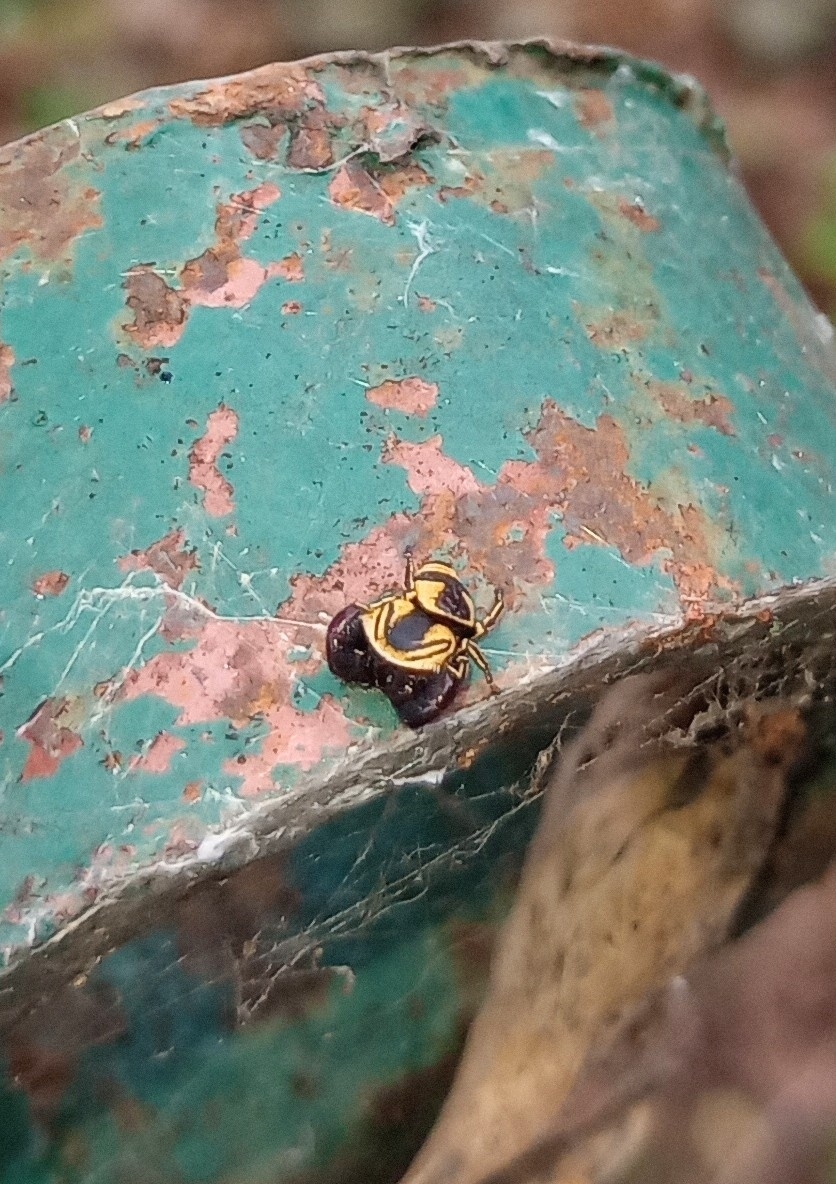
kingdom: Animalia
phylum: Arthropoda
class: Arachnida
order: Araneae
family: Salticidae
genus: Rhene
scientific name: Rhene flavicomans
